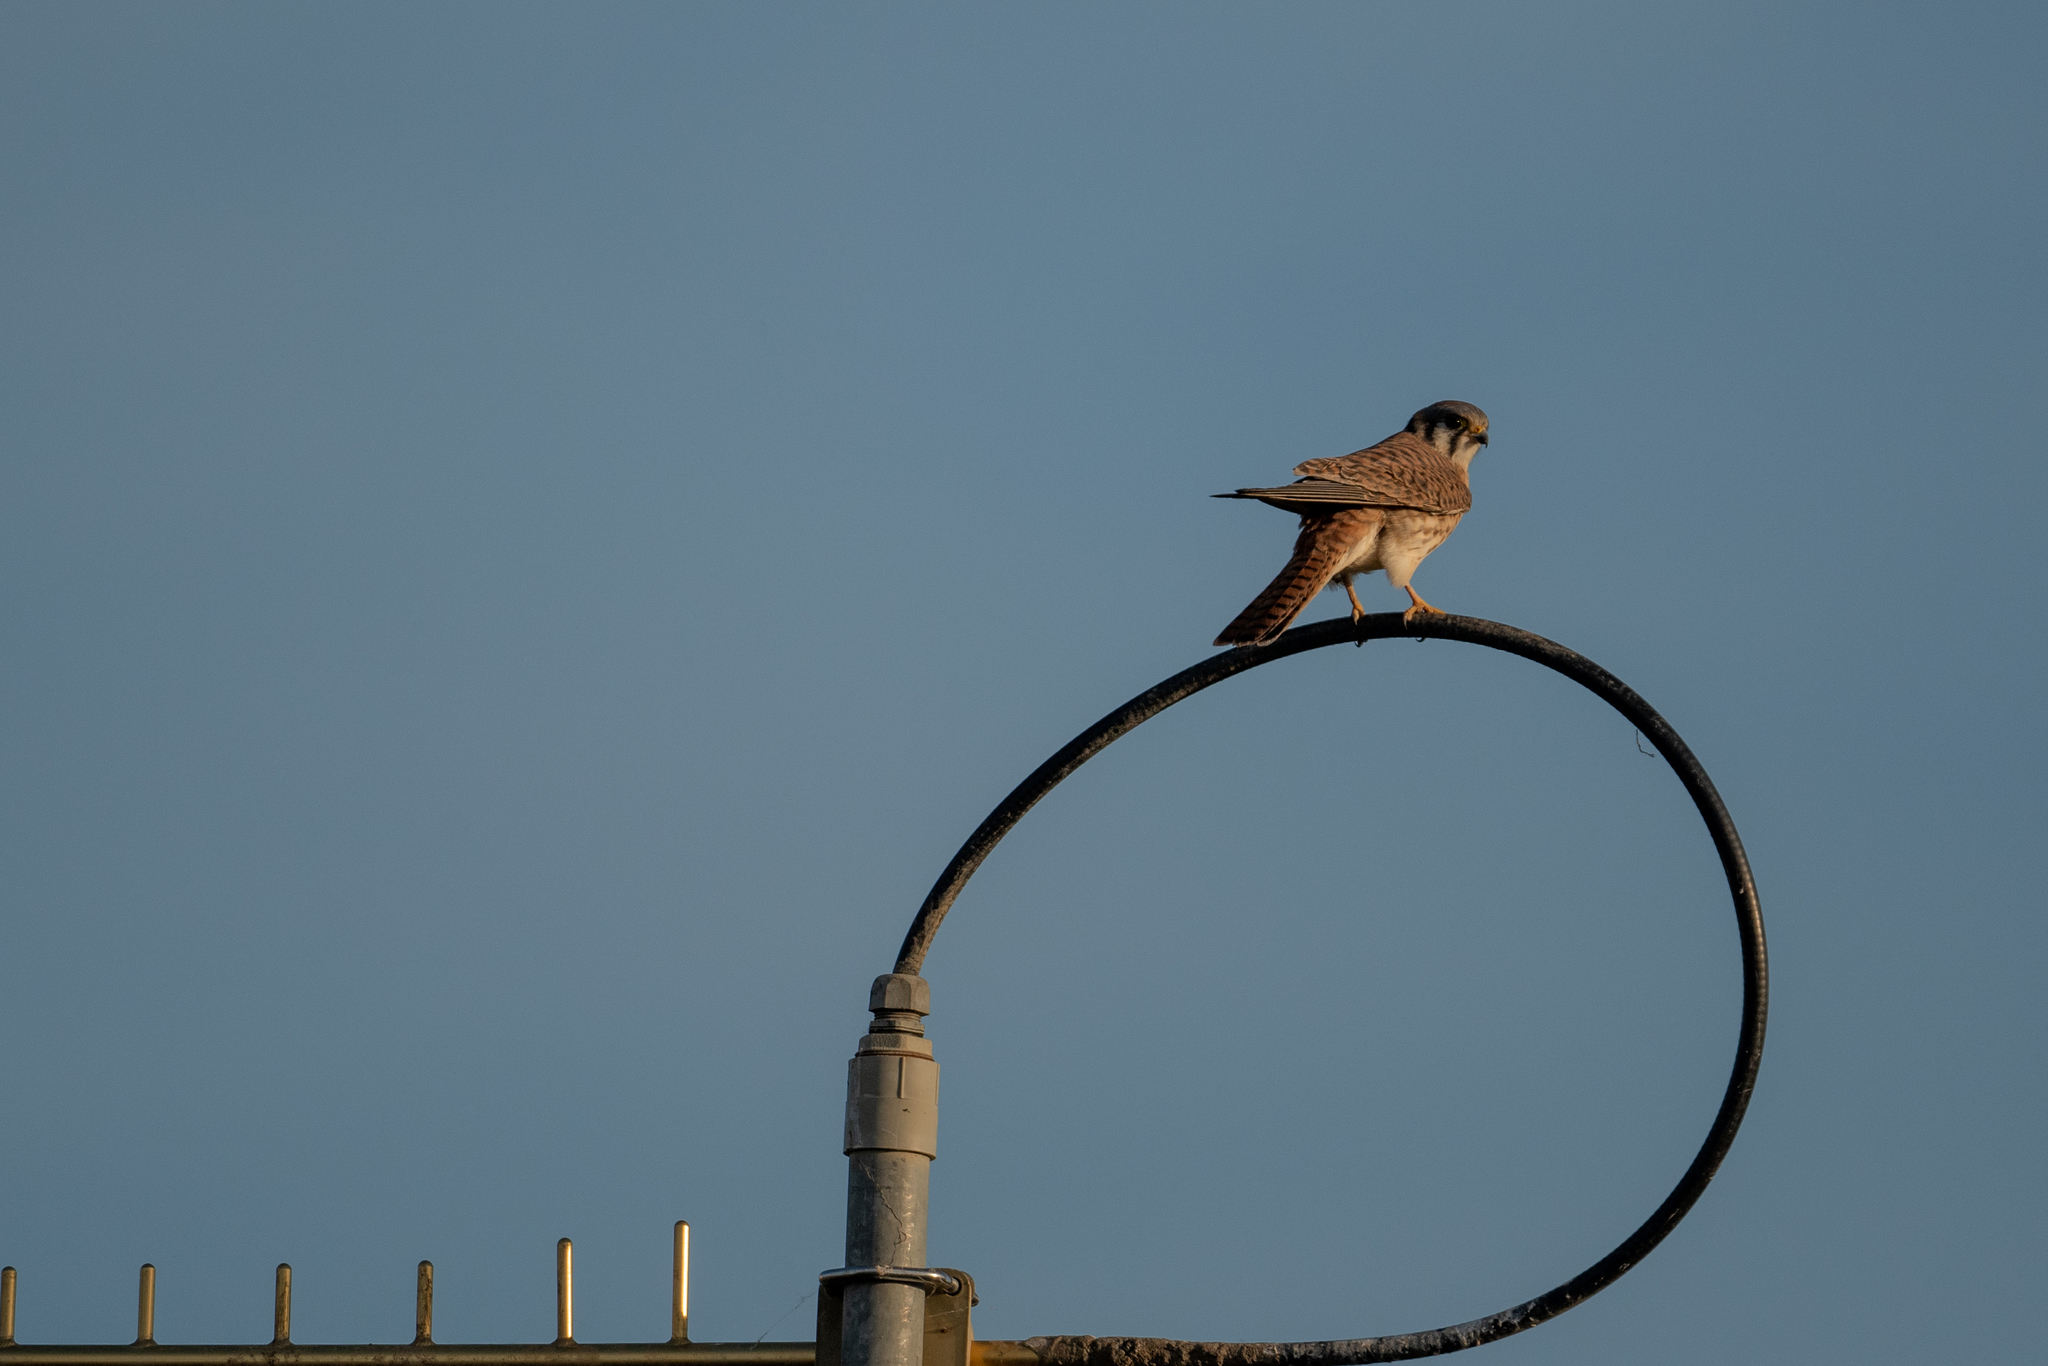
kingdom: Animalia
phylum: Chordata
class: Aves
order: Falconiformes
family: Falconidae
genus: Falco
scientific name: Falco sparverius
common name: American kestrel
